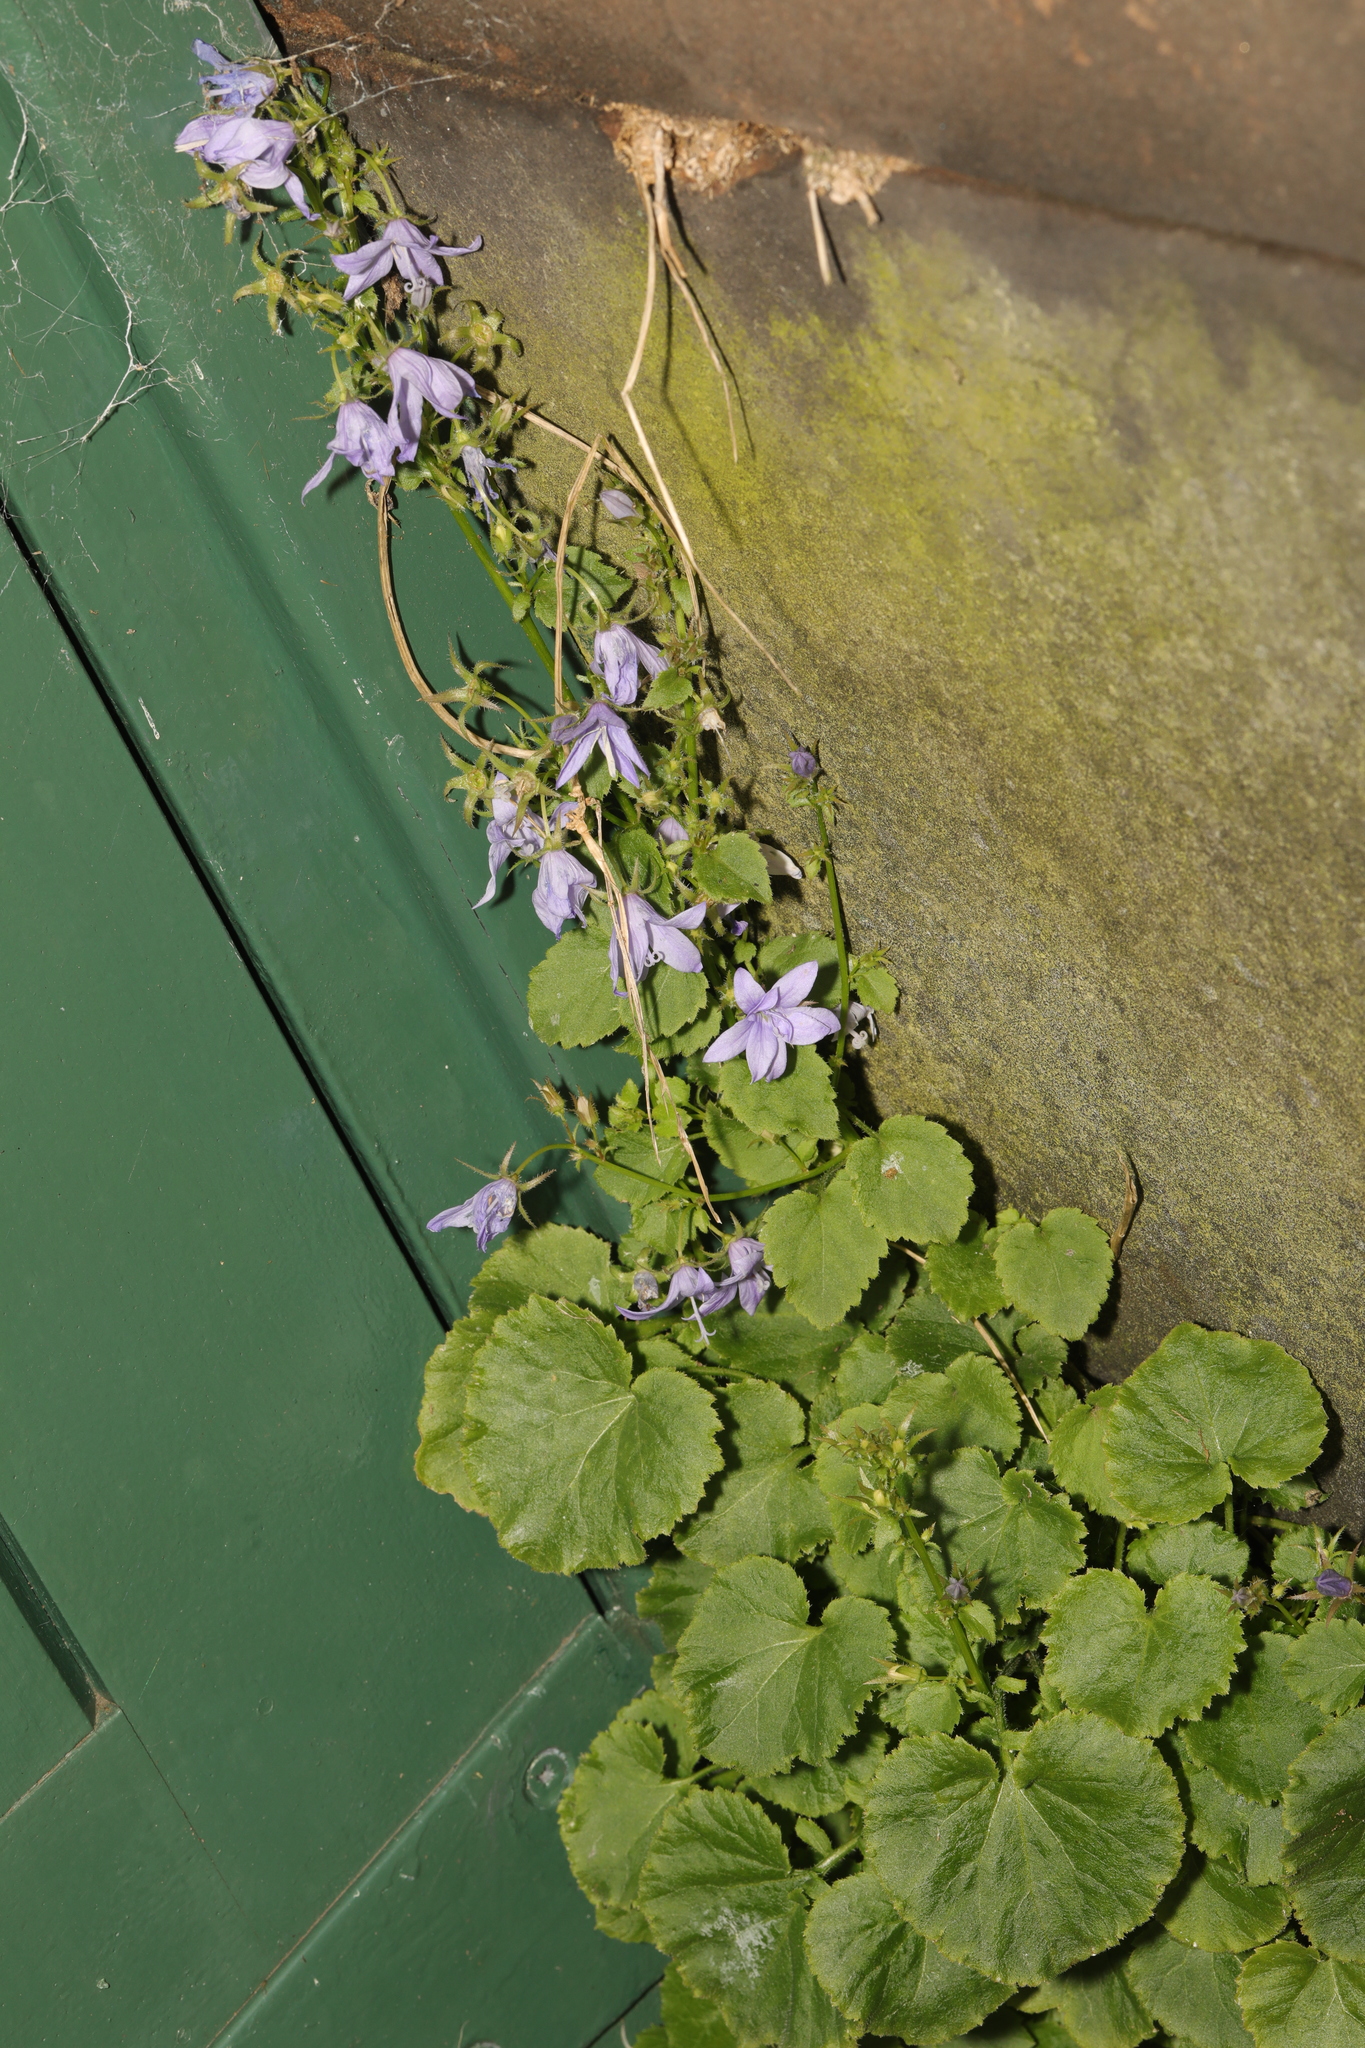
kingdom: Plantae
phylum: Tracheophyta
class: Magnoliopsida
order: Asterales
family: Campanulaceae
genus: Campanula
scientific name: Campanula poscharskyana
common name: Trailing bellflower
